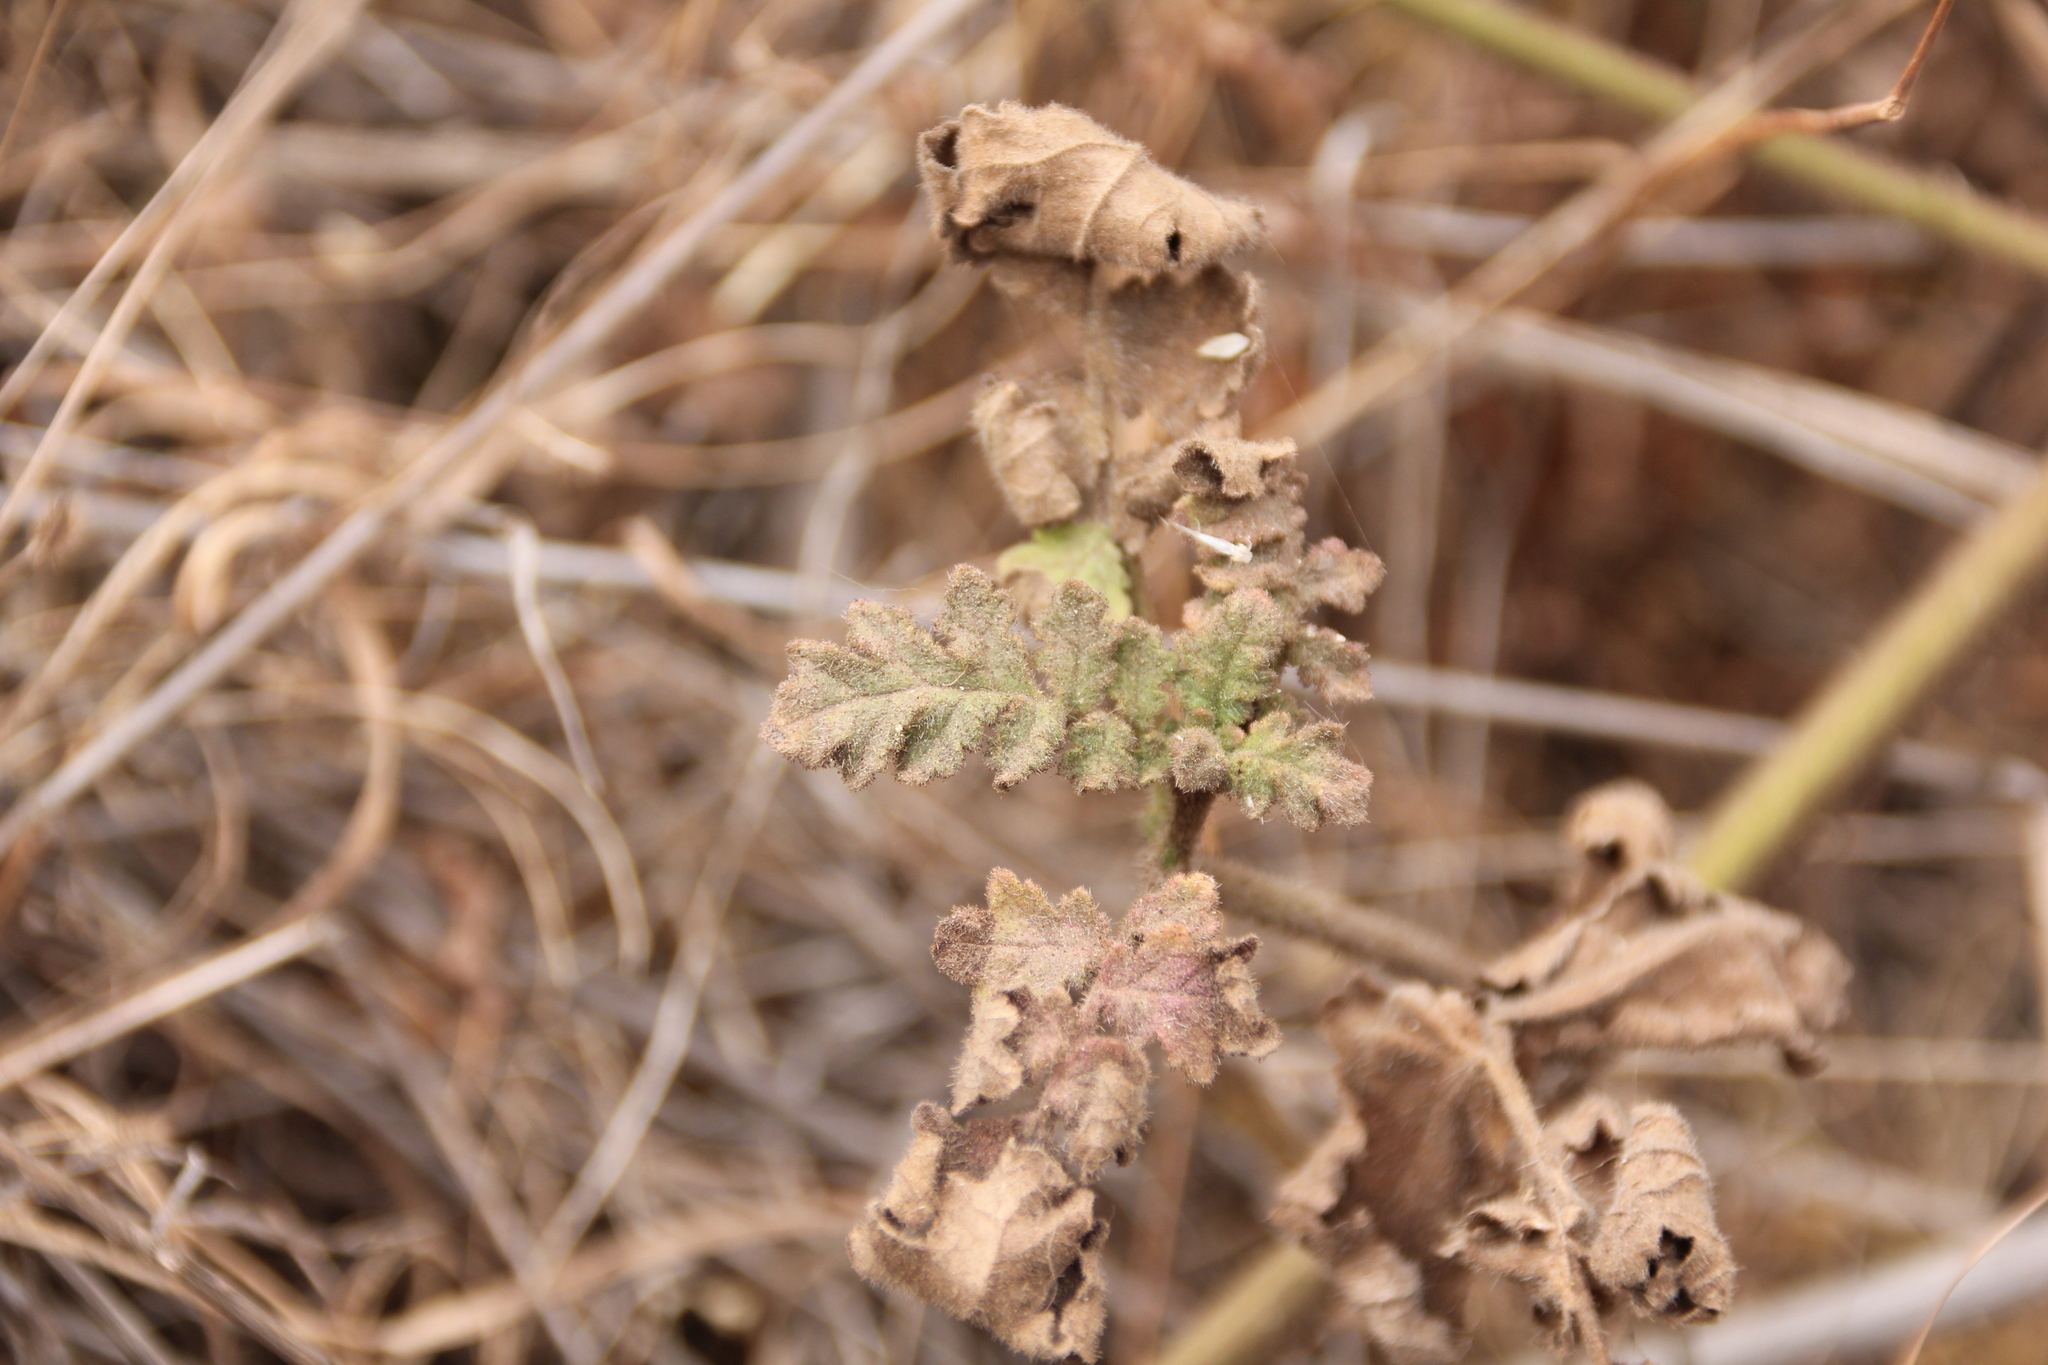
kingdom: Plantae
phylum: Tracheophyta
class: Magnoliopsida
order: Boraginales
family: Hydrophyllaceae
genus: Phacelia
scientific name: Phacelia ramosissima
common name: Branching phacelia
